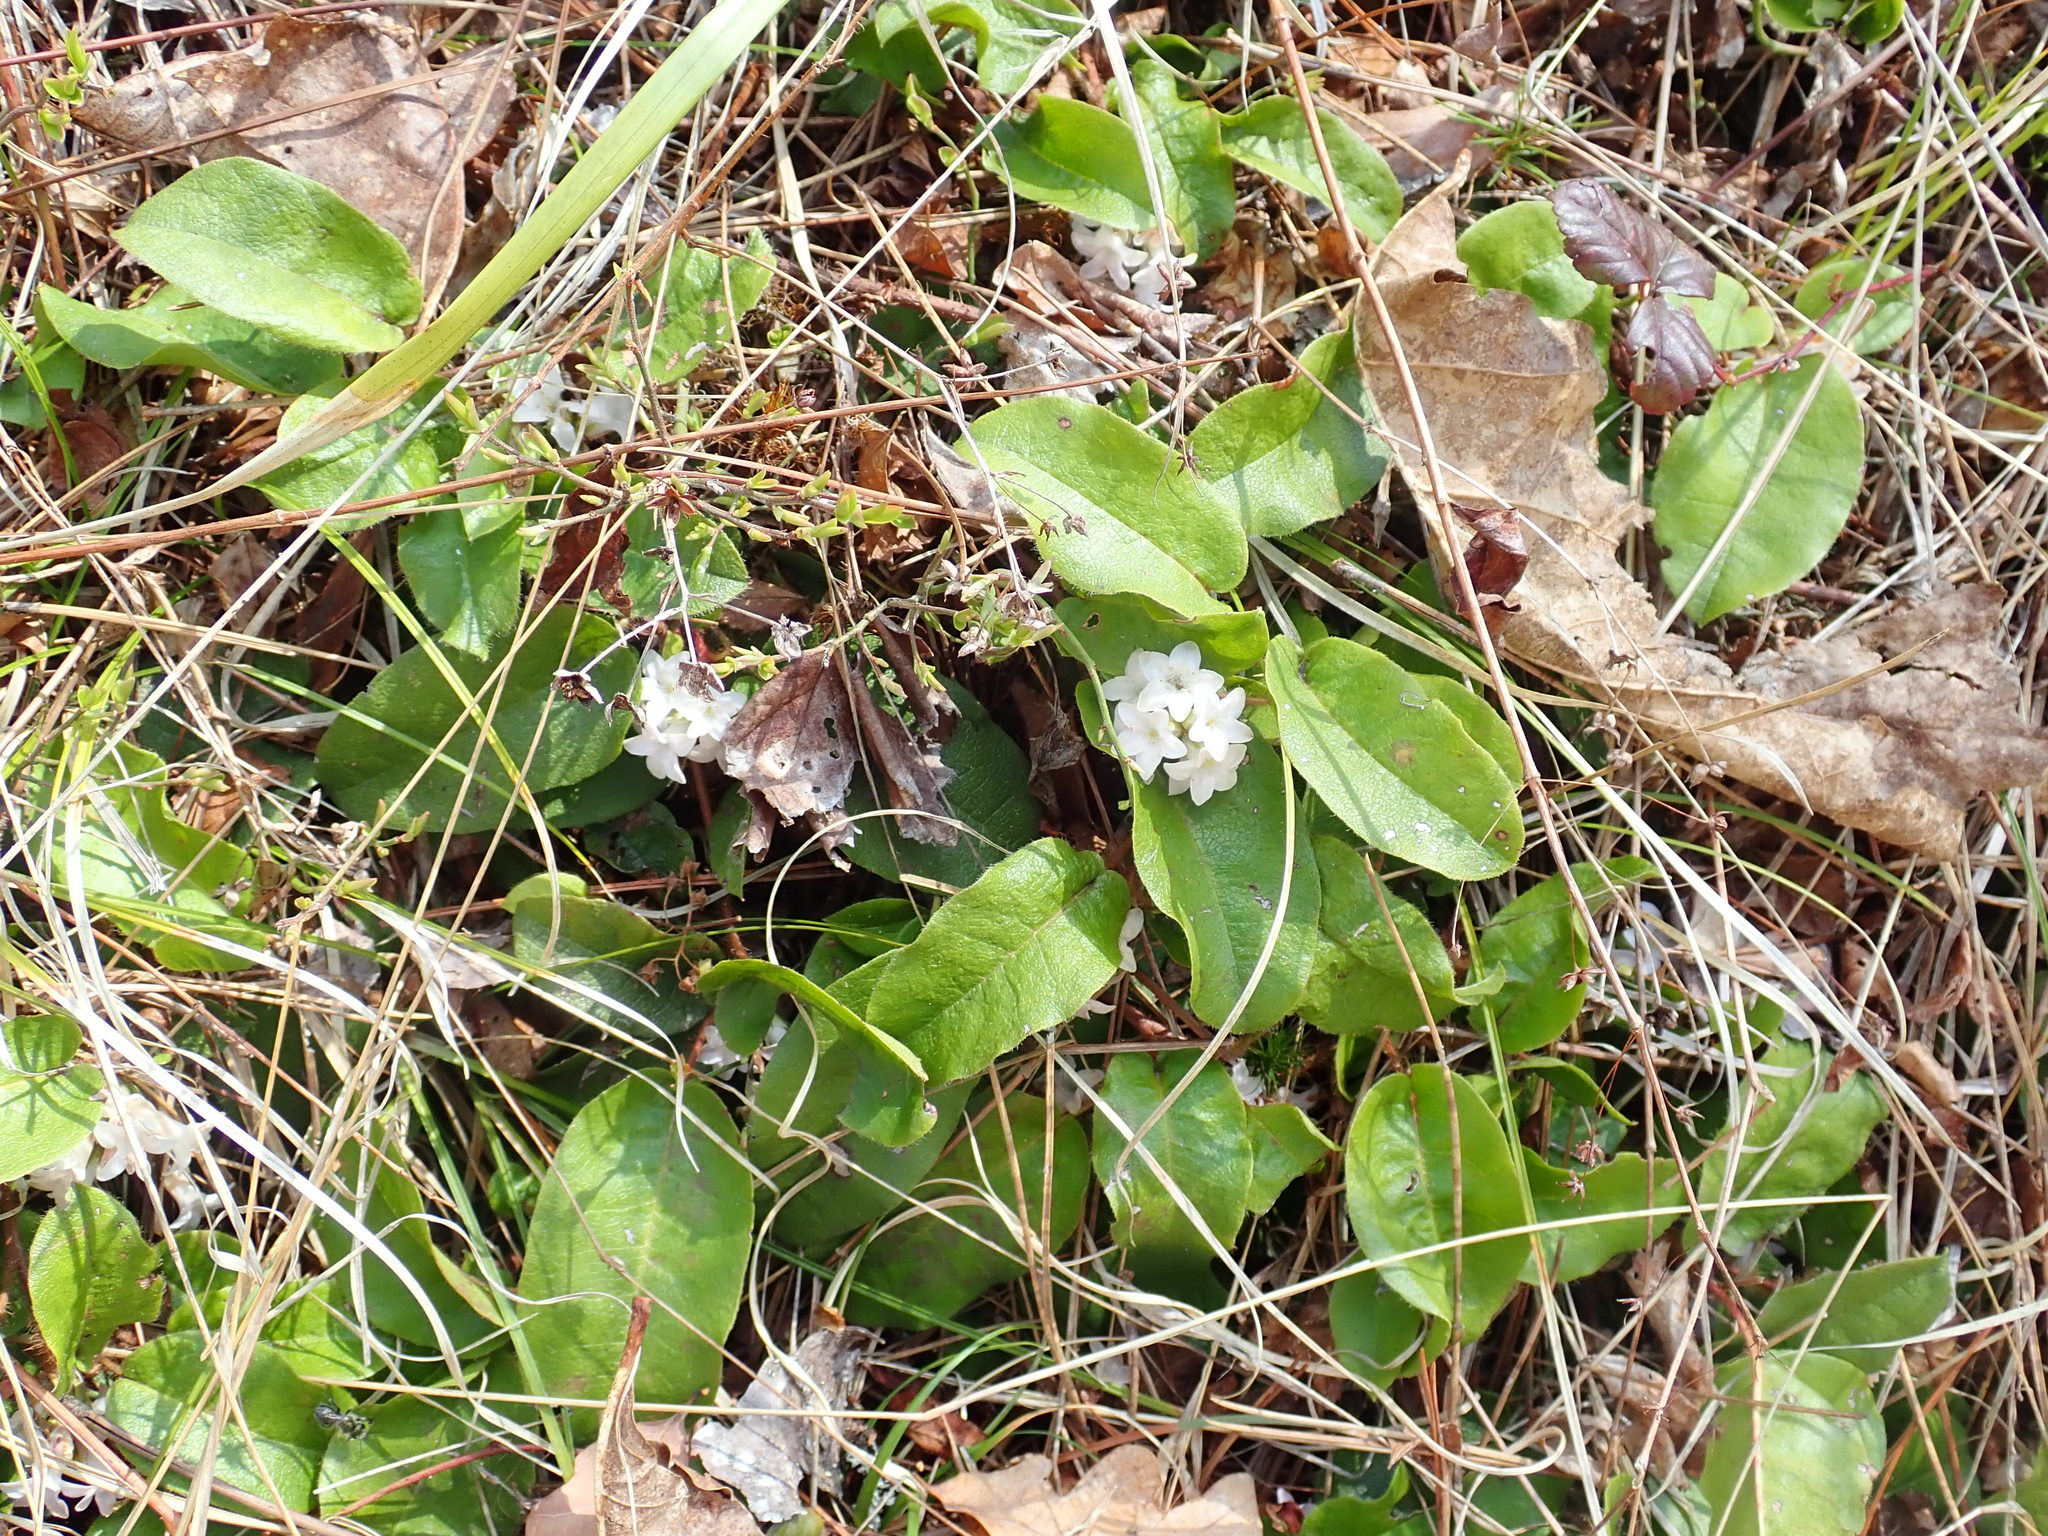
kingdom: Plantae
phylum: Tracheophyta
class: Magnoliopsida
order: Ericales
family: Ericaceae
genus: Epigaea
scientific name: Epigaea repens
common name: Gravelroot
